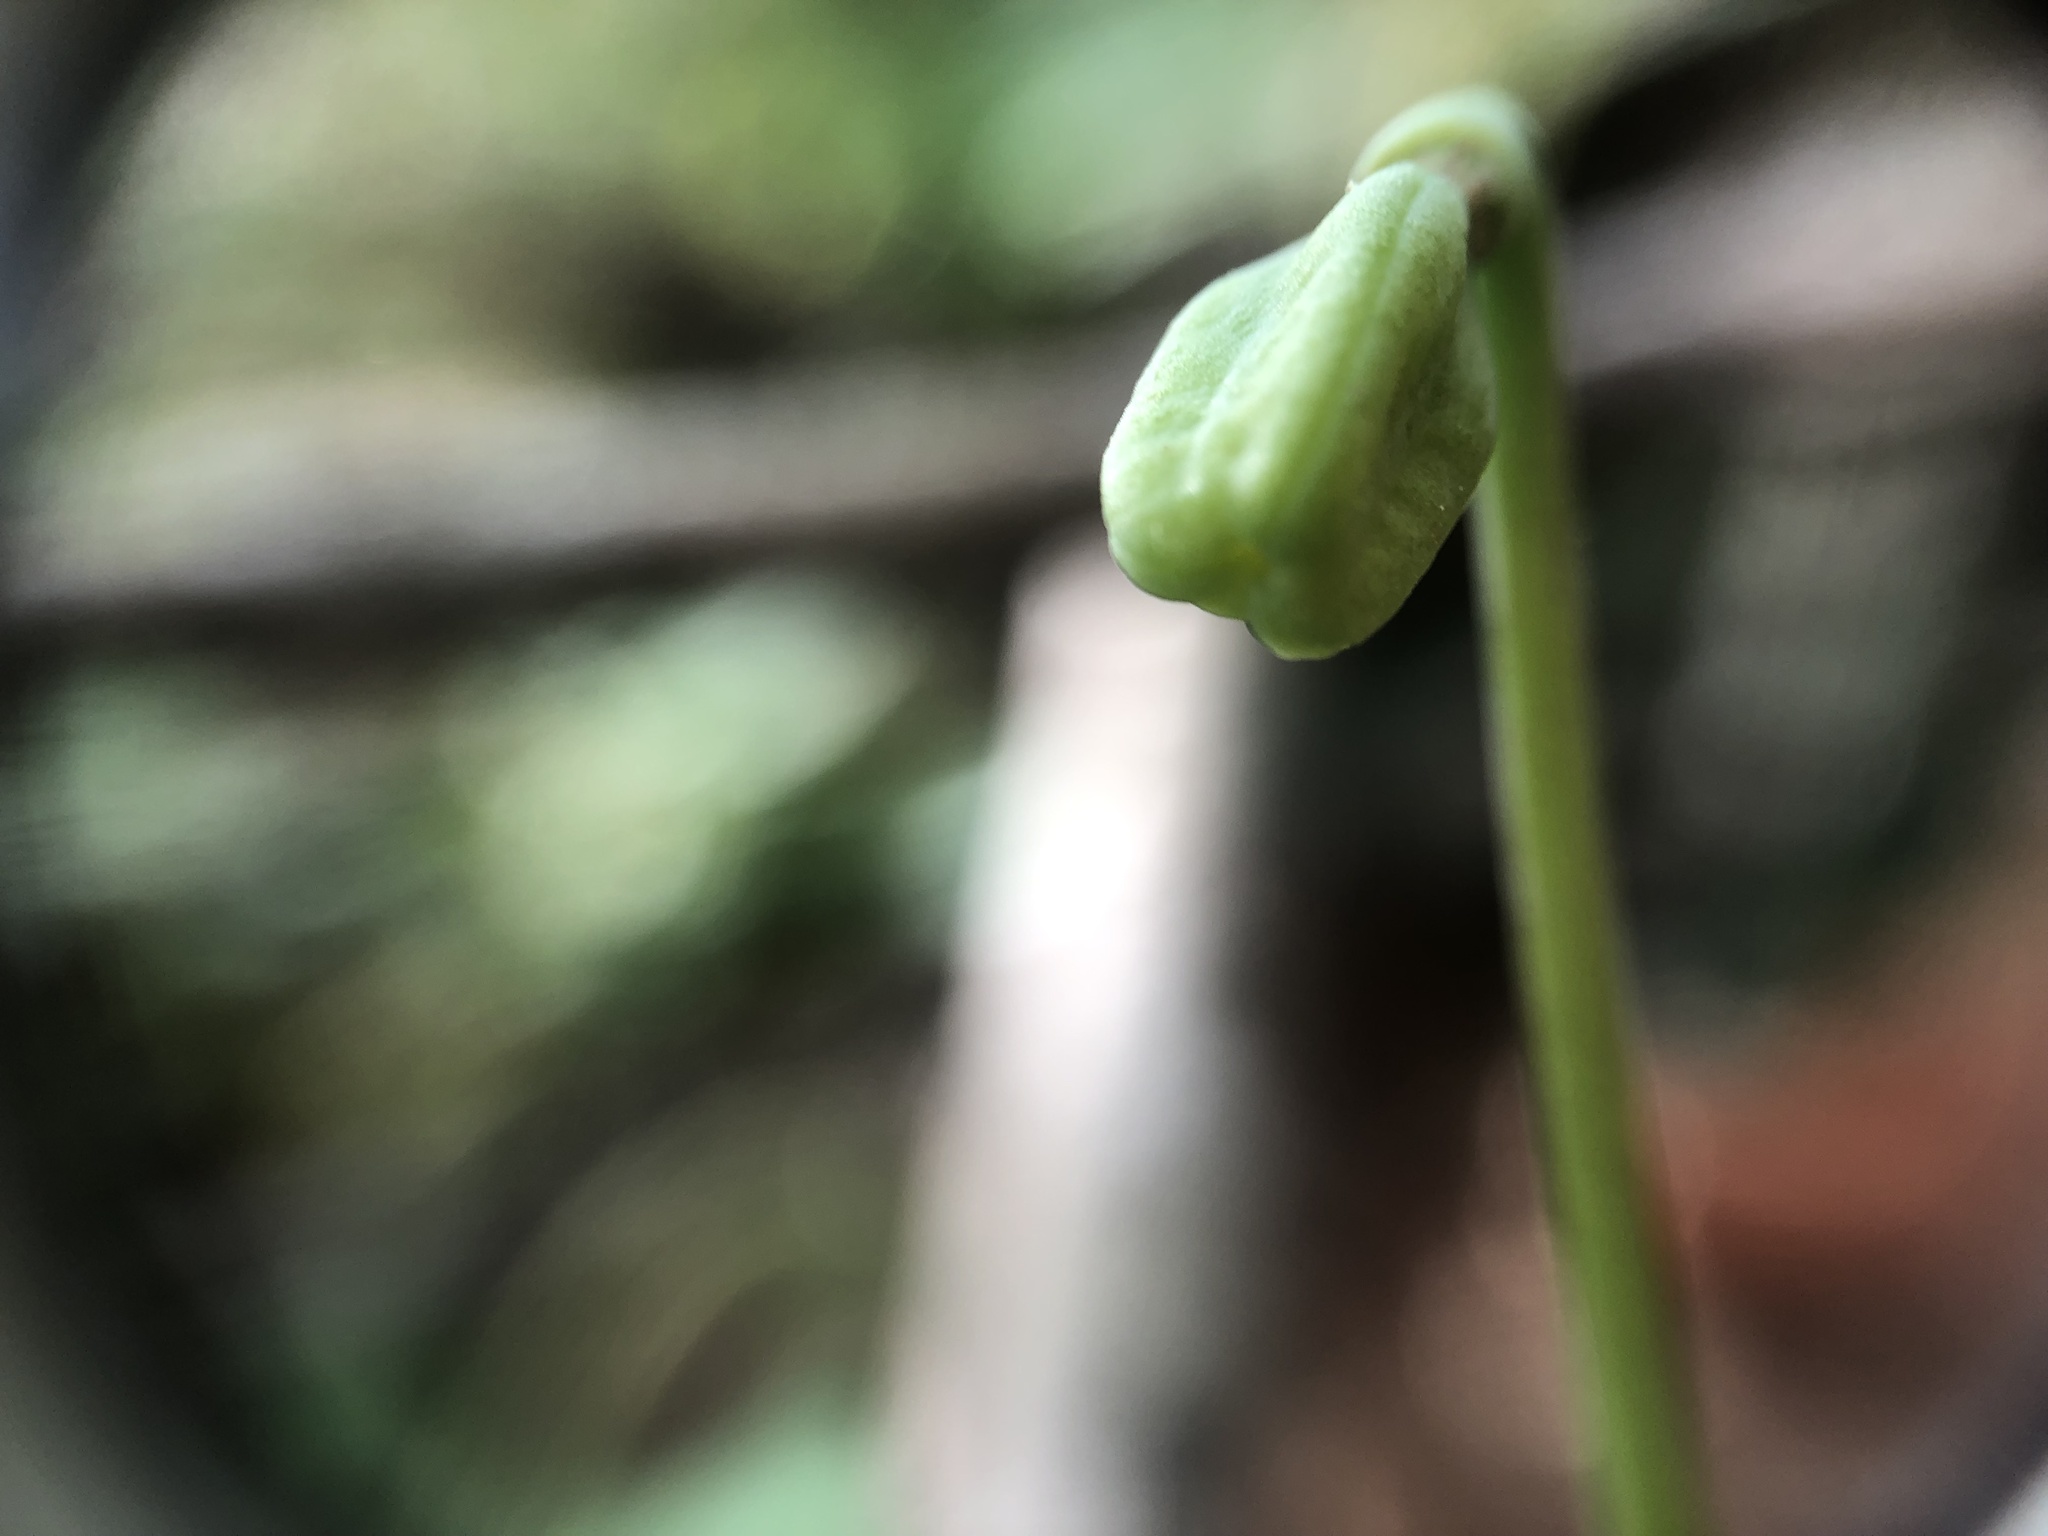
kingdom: Plantae
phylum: Tracheophyta
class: Liliopsida
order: Liliales
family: Liliaceae
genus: Erythronium
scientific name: Erythronium umbilicatum
